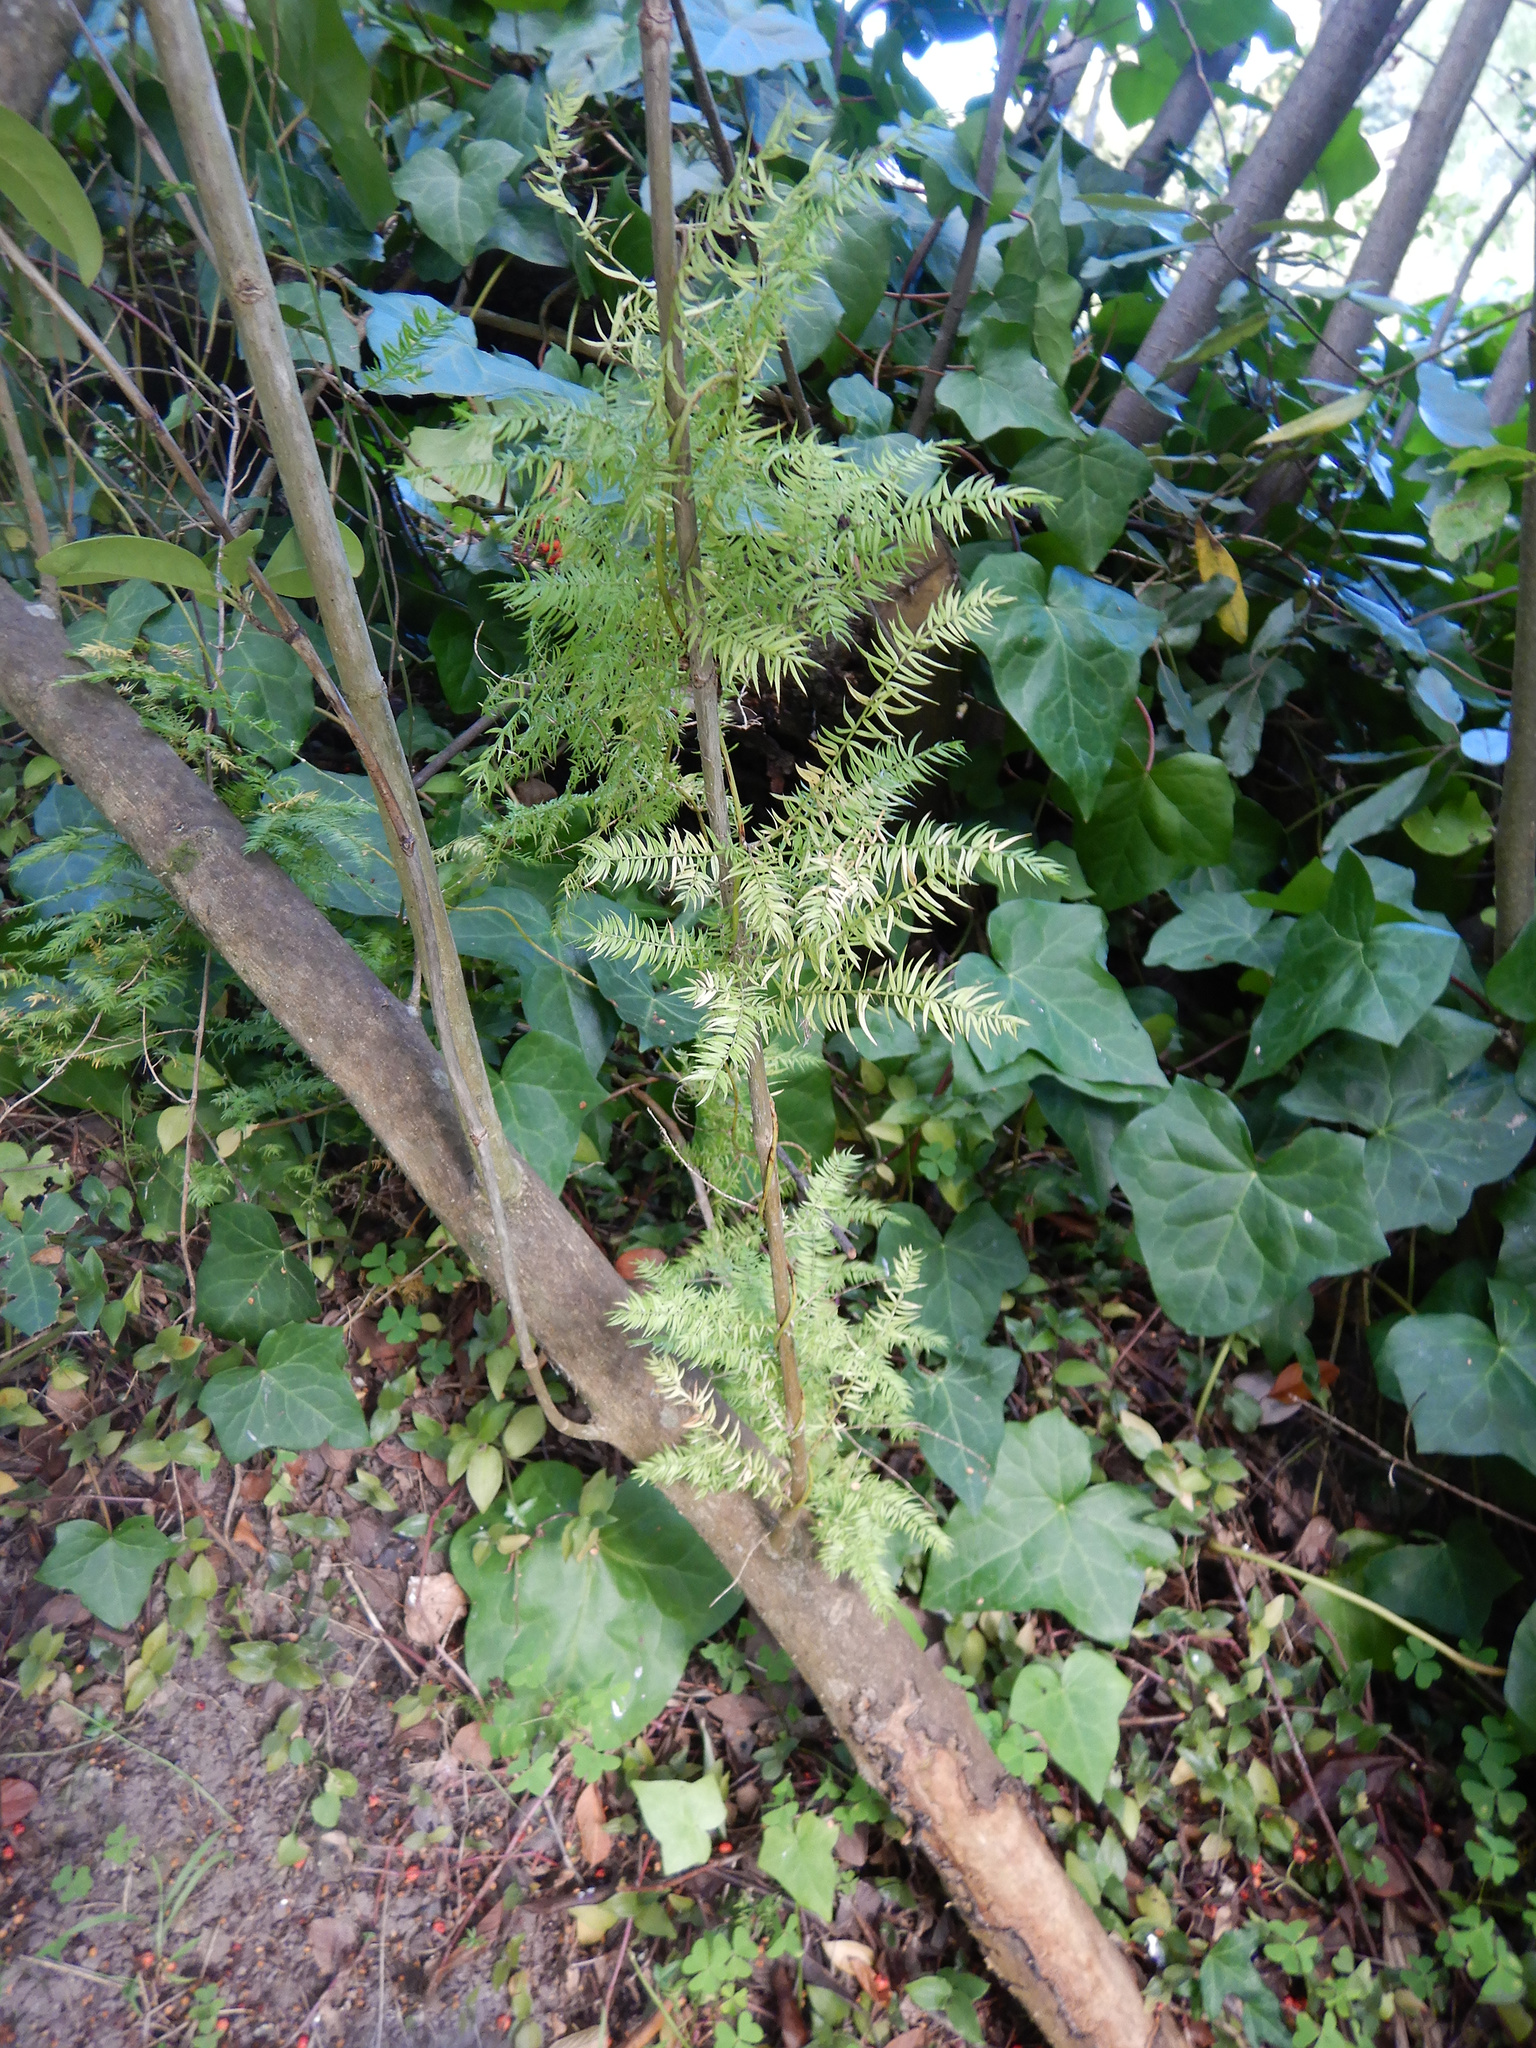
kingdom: Plantae
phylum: Tracheophyta
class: Liliopsida
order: Asparagales
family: Asparagaceae
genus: Asparagus
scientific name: Asparagus scandens
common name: Asparagus-fern
